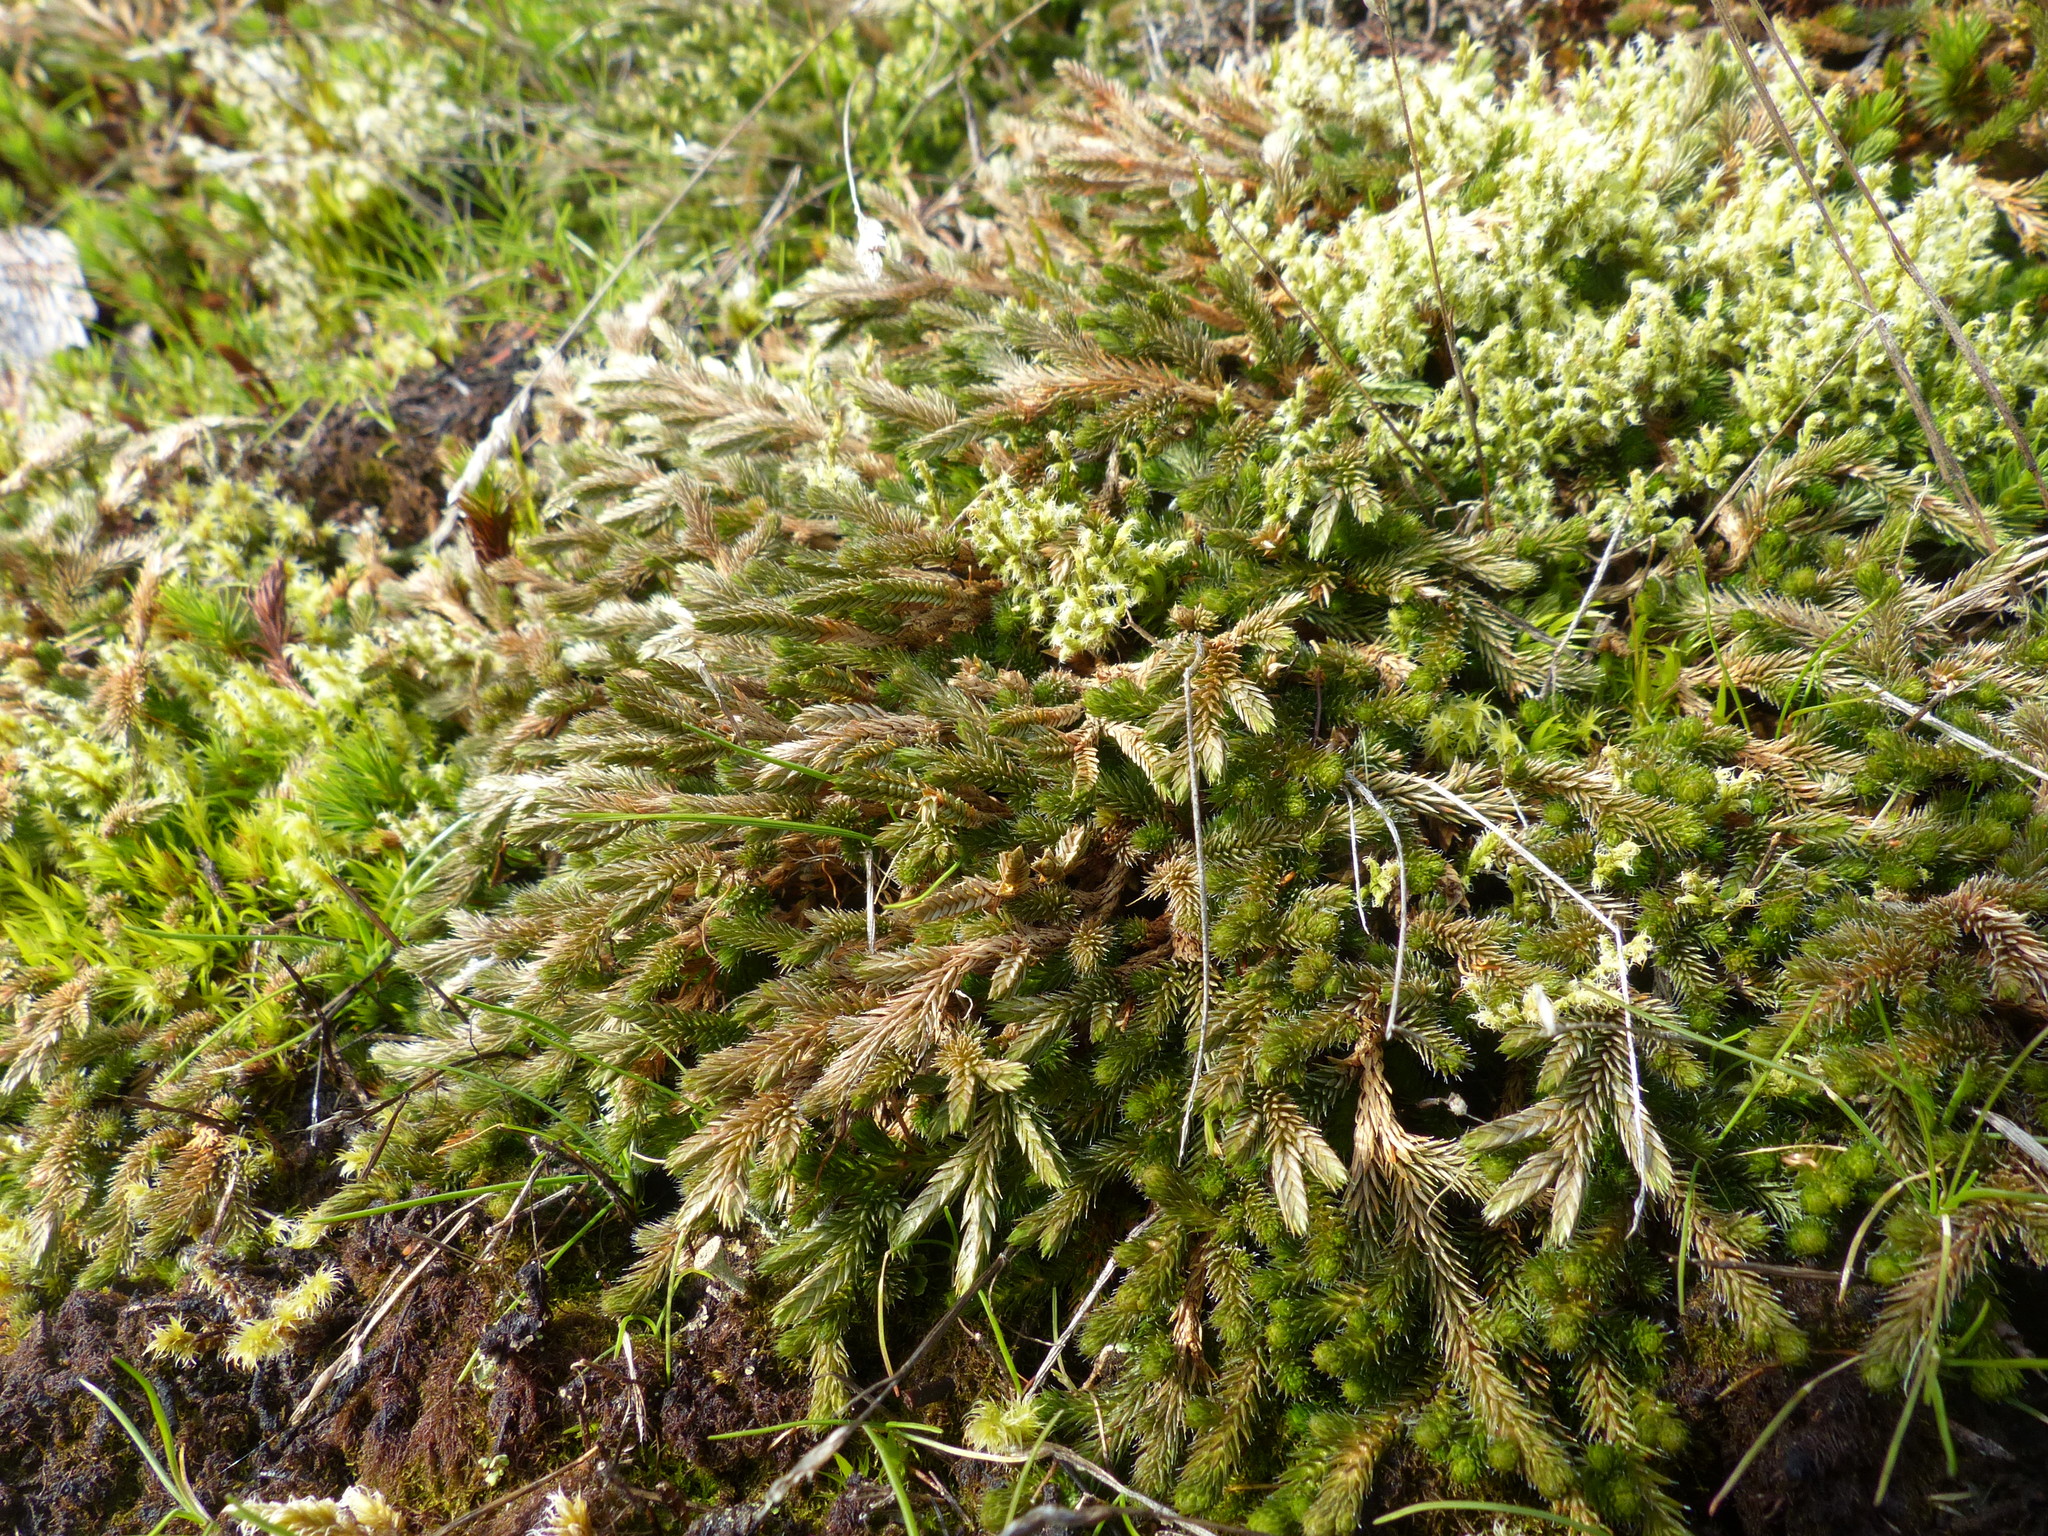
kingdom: Plantae
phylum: Tracheophyta
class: Lycopodiopsida
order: Selaginellales
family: Selaginellaceae
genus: Selaginella
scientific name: Selaginella wallacei
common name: Wallace's selaginella
